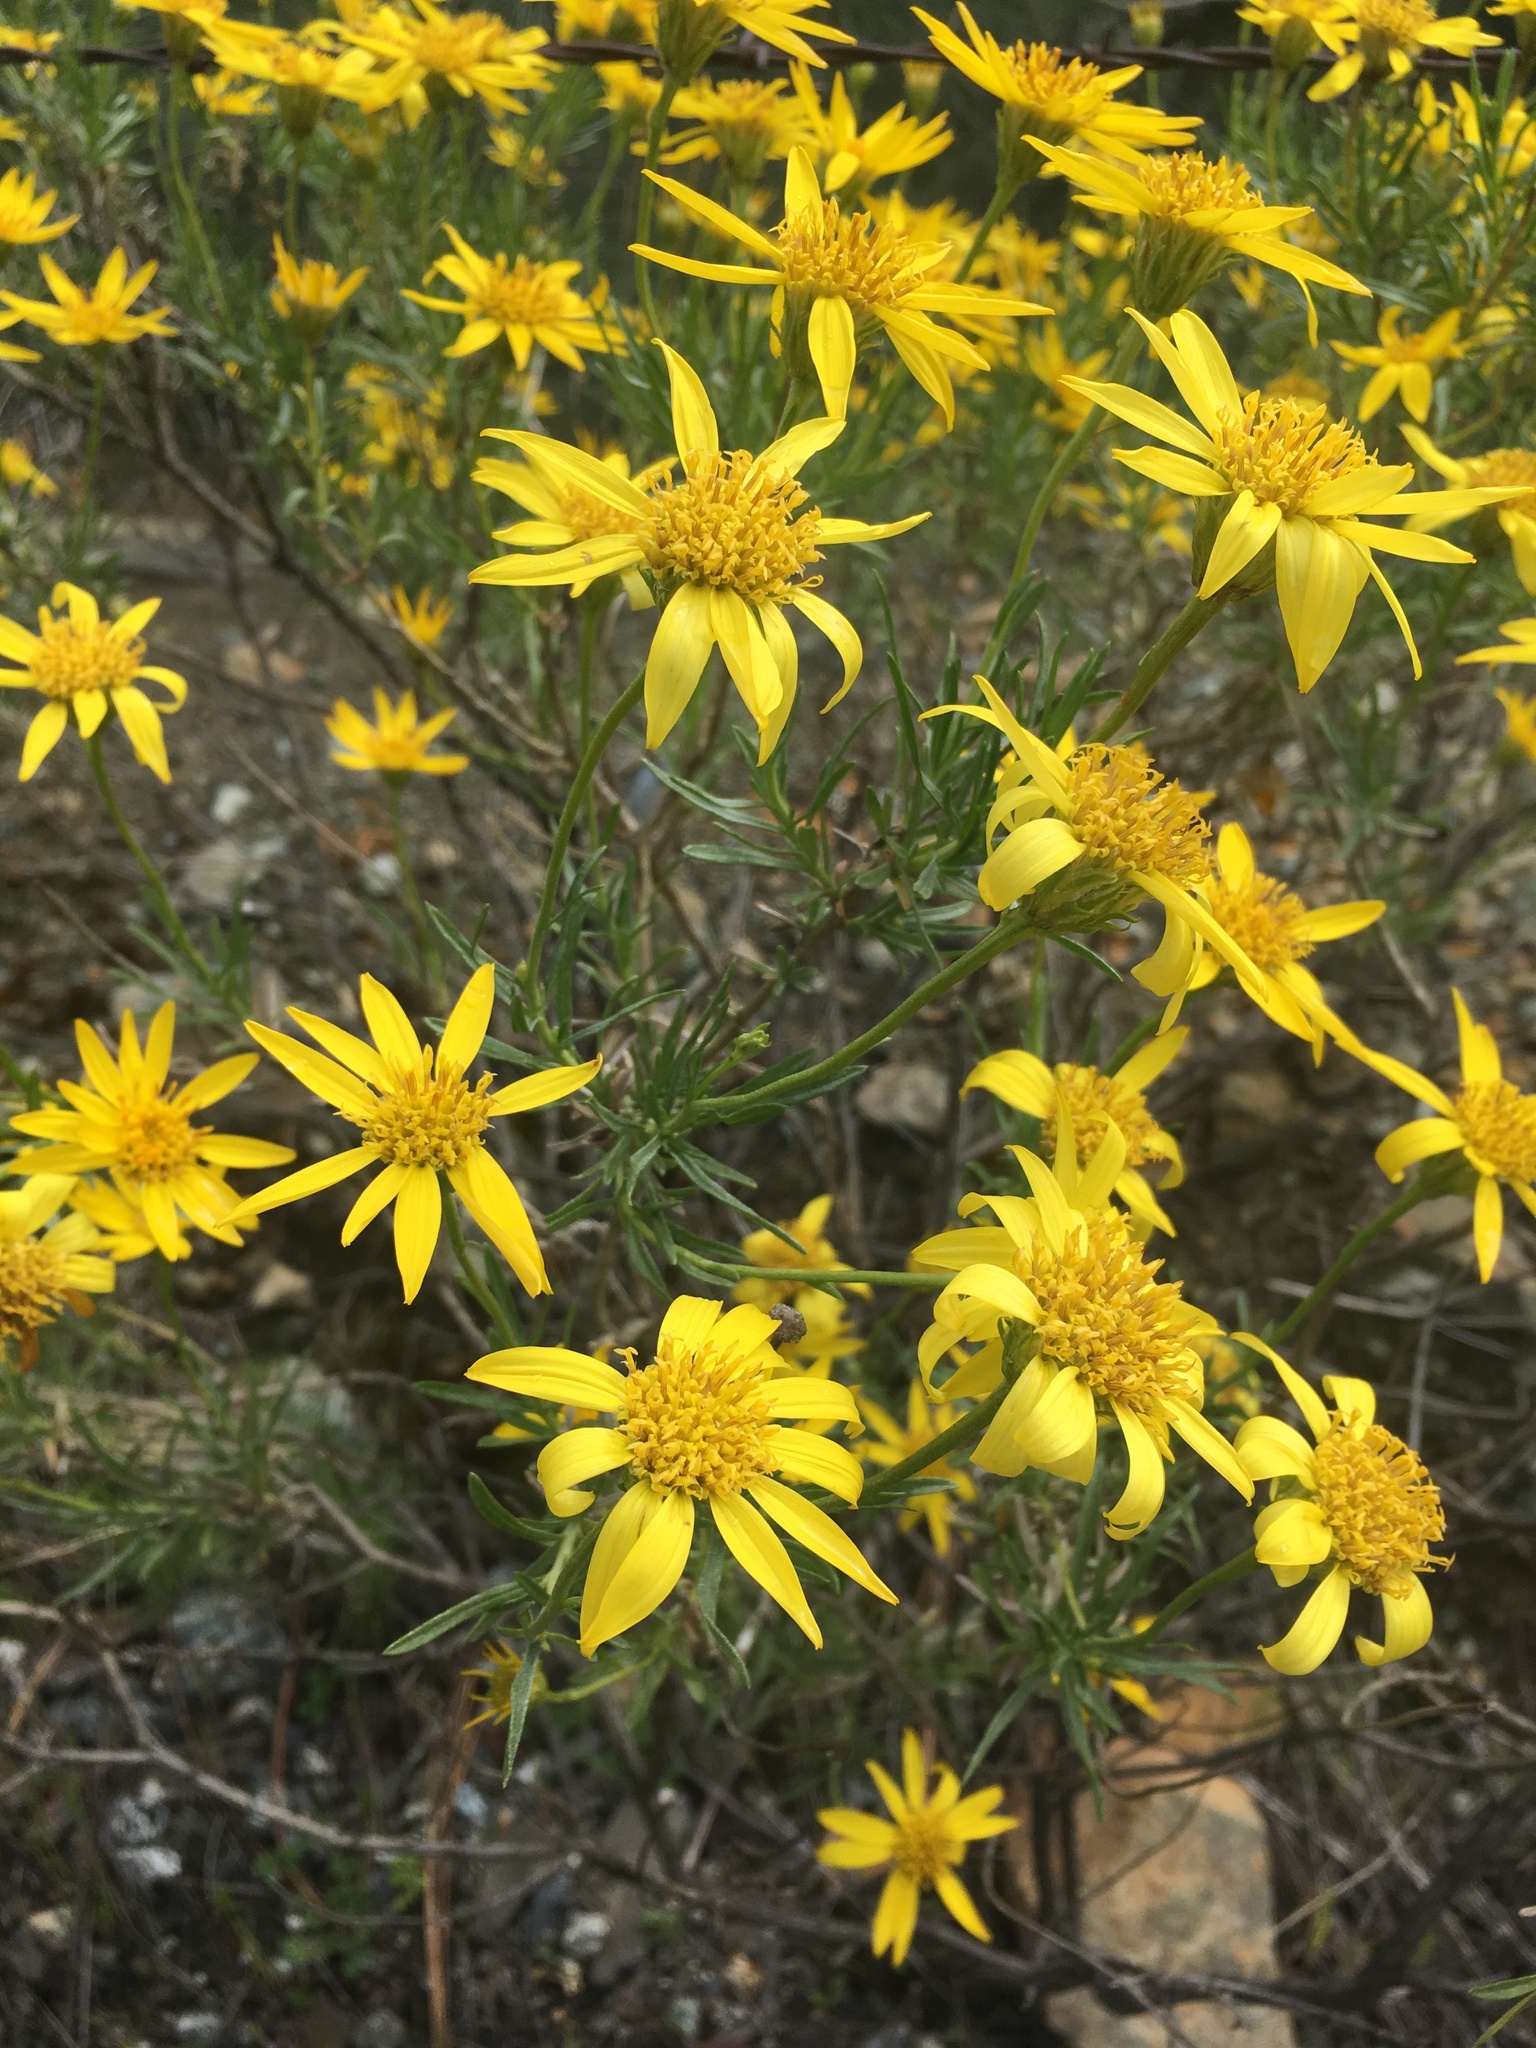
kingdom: Plantae
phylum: Tracheophyta
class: Magnoliopsida
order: Asterales
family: Asteraceae
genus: Ericameria
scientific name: Ericameria linearifolia
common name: Interior goldenbush
